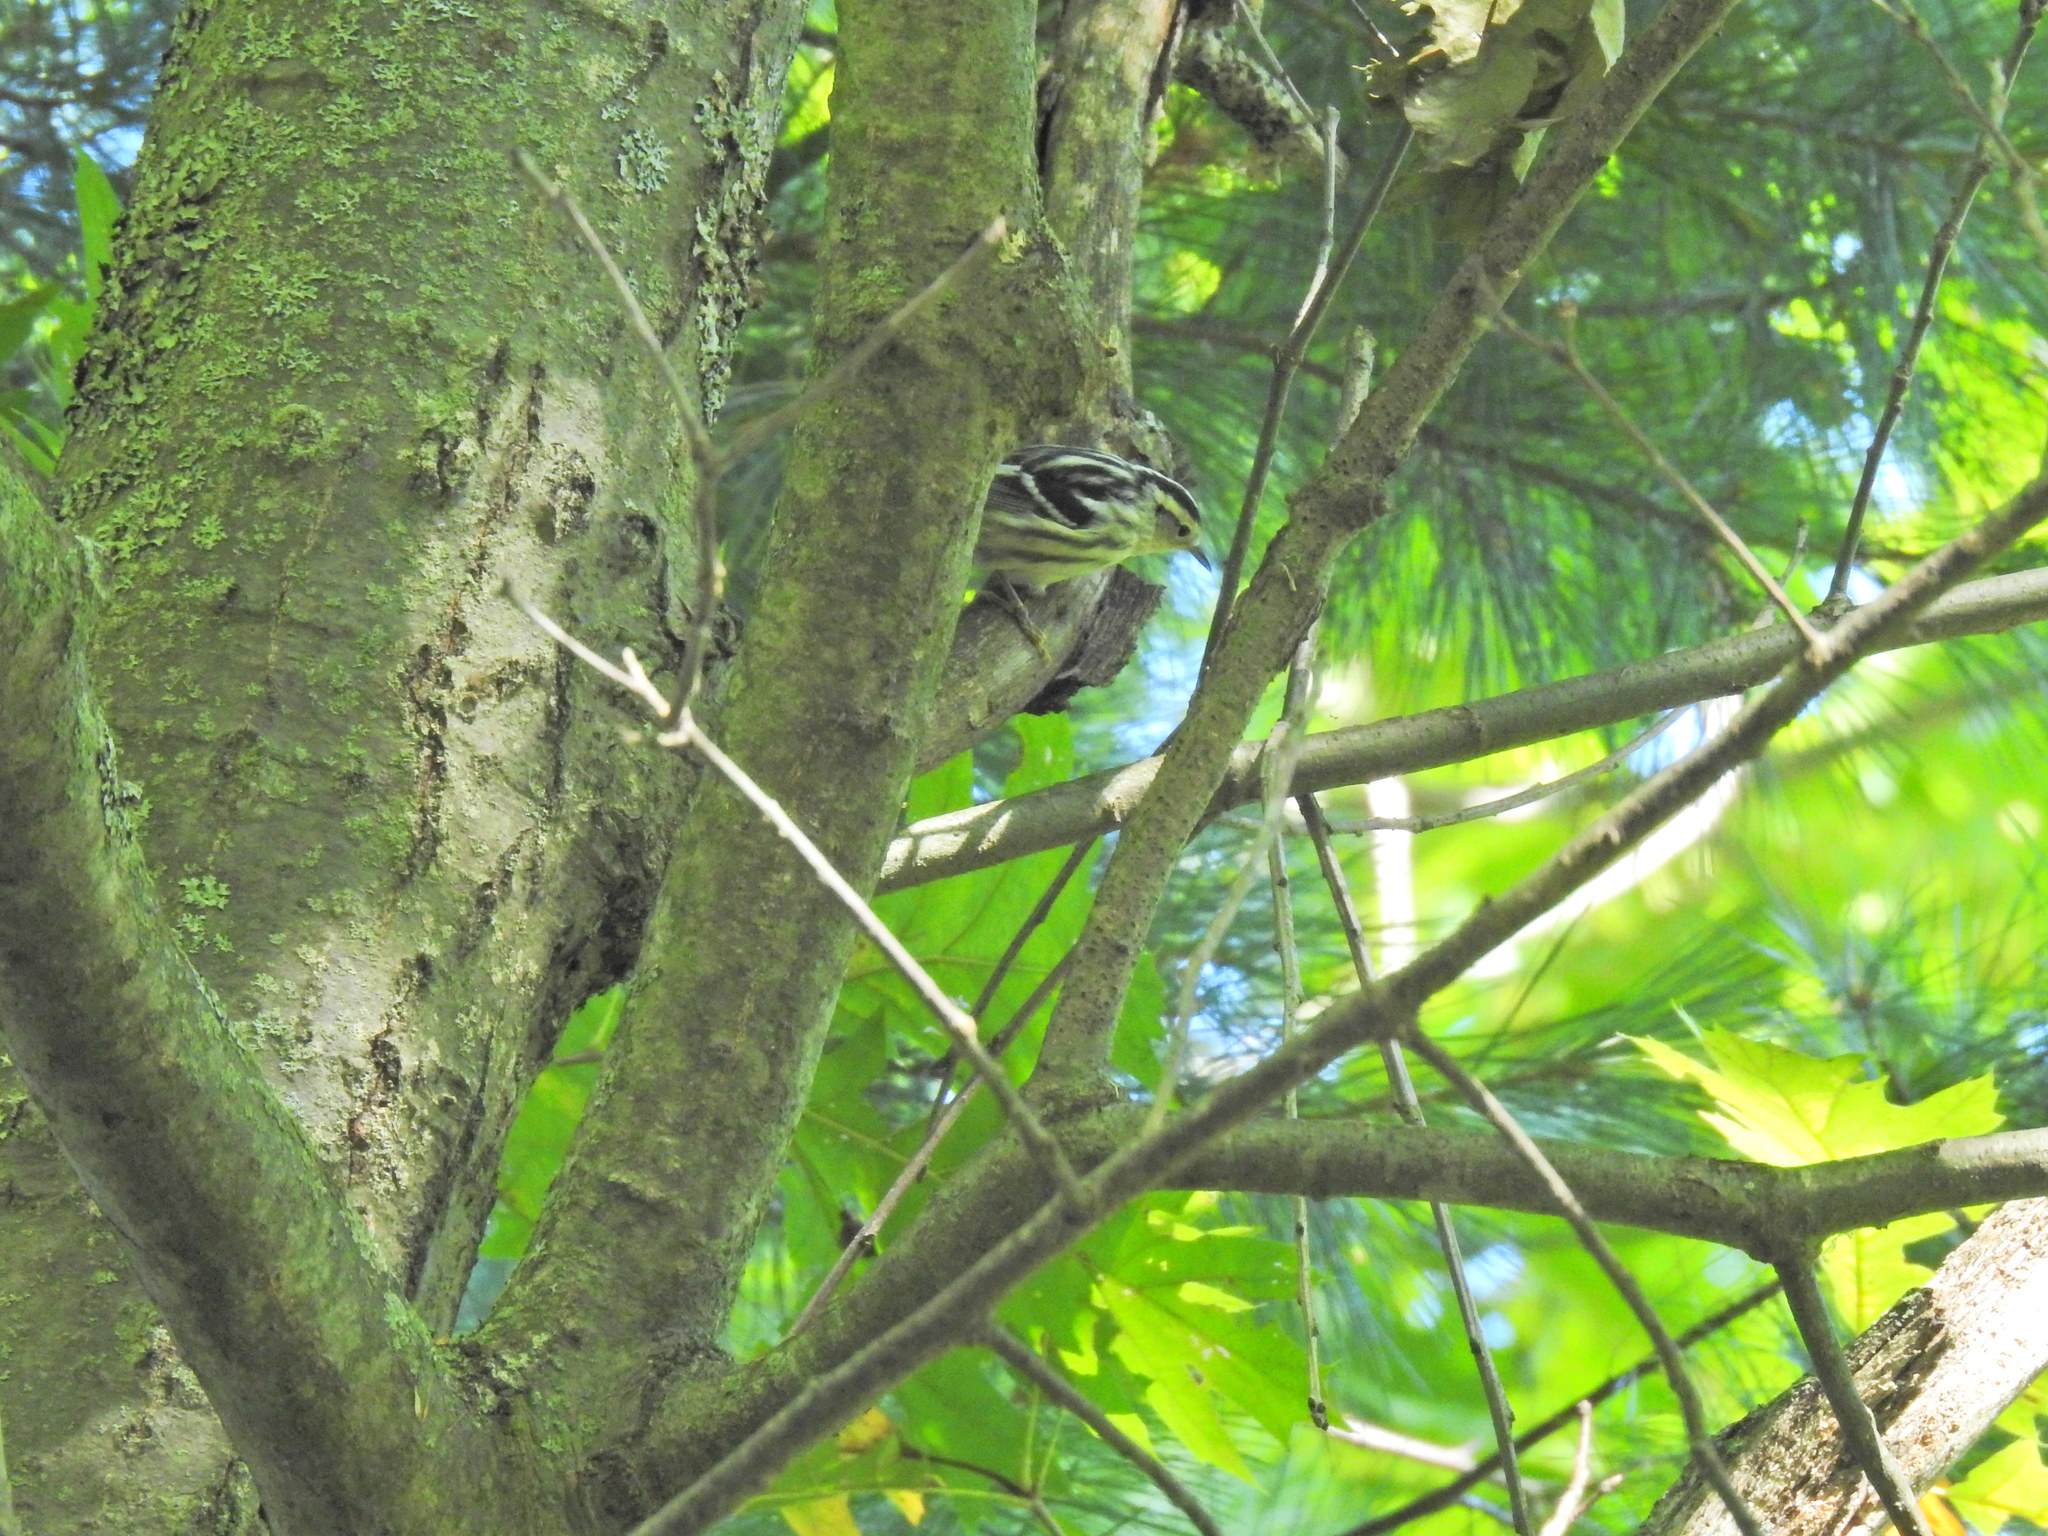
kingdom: Animalia
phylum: Chordata
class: Aves
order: Passeriformes
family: Parulidae
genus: Mniotilta
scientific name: Mniotilta varia
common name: Black-and-white warbler
